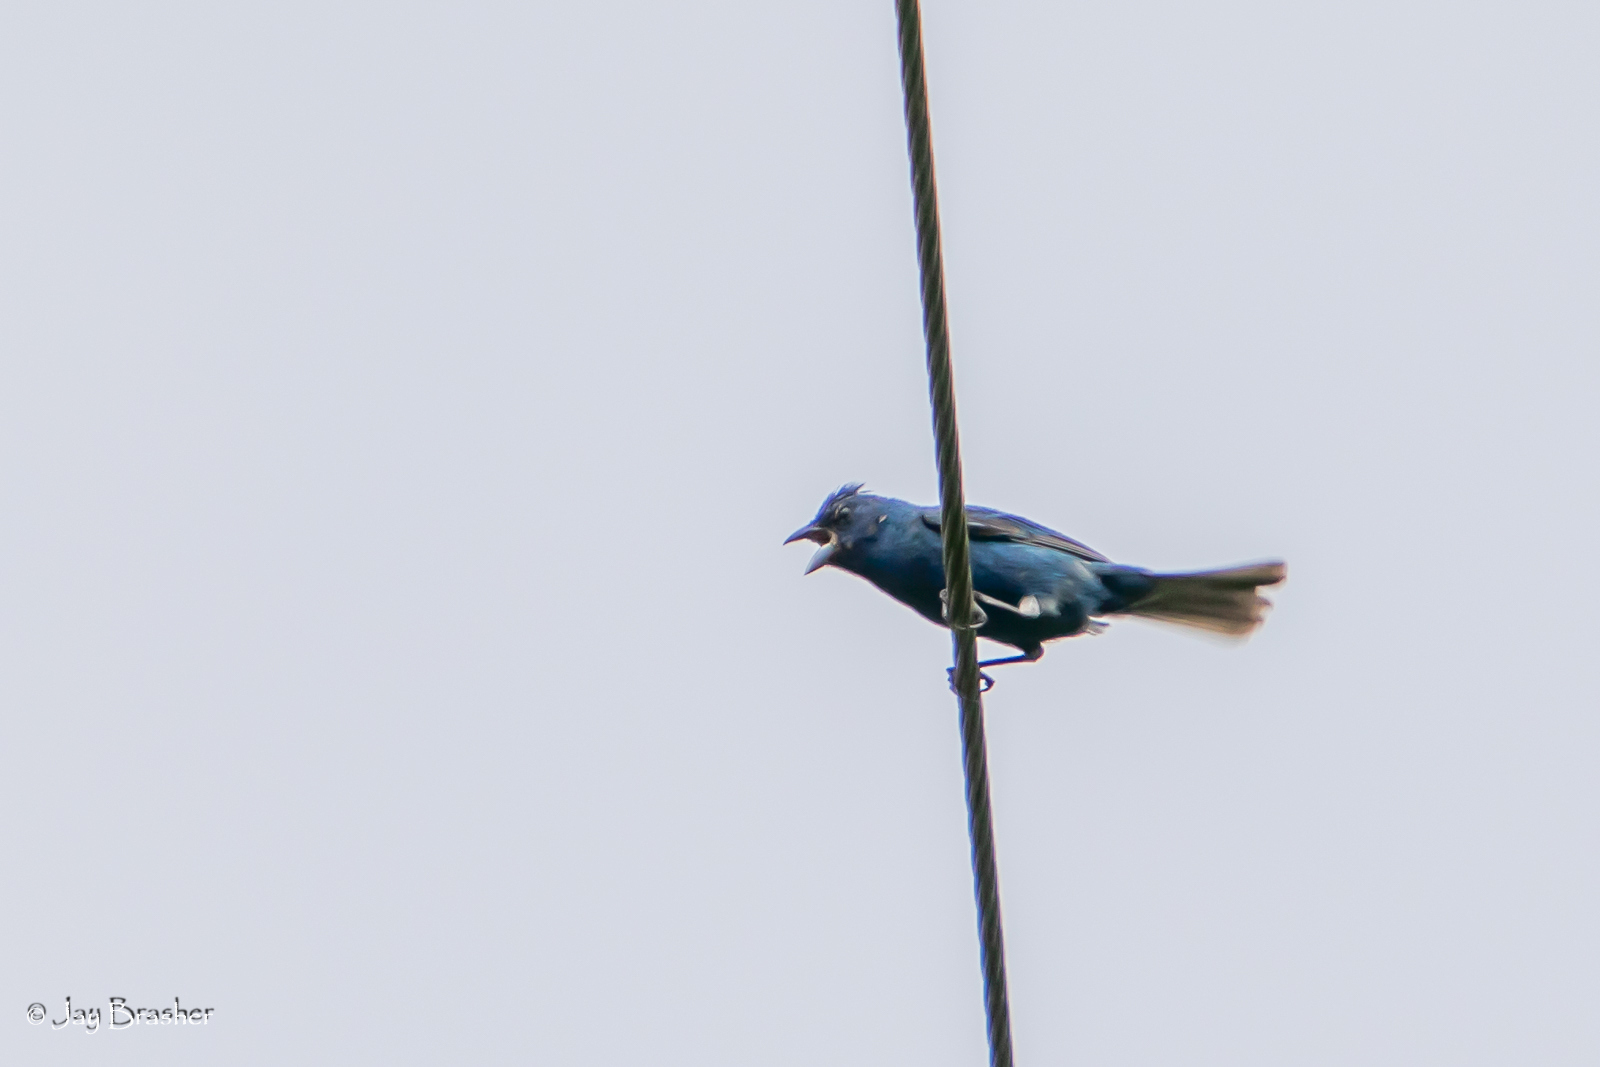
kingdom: Animalia
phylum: Chordata
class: Aves
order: Passeriformes
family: Cardinalidae
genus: Passerina
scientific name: Passerina cyanea
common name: Indigo bunting
